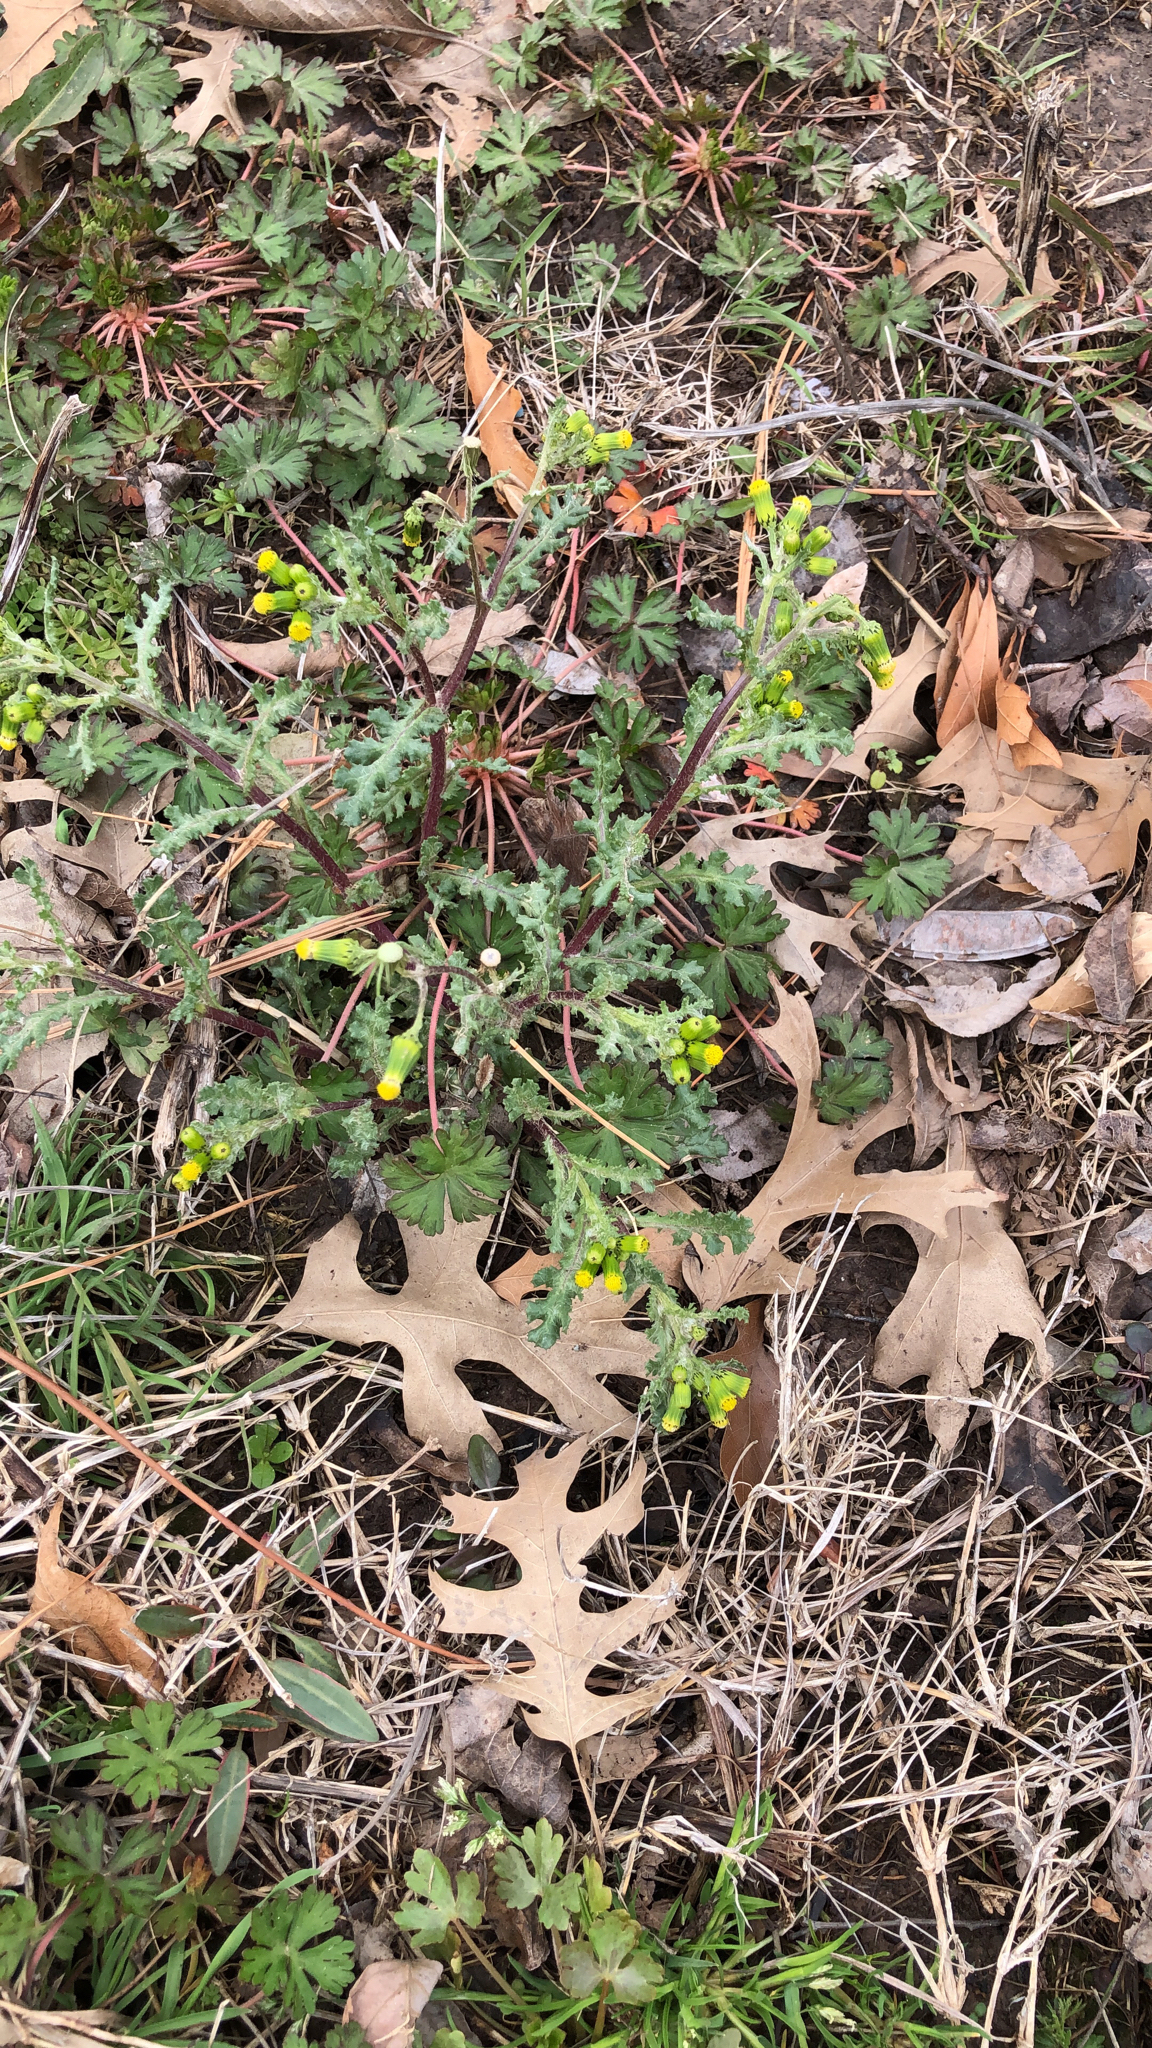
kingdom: Plantae
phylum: Tracheophyta
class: Magnoliopsida
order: Asterales
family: Asteraceae
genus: Senecio
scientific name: Senecio vulgaris
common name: Old-man-in-the-spring
